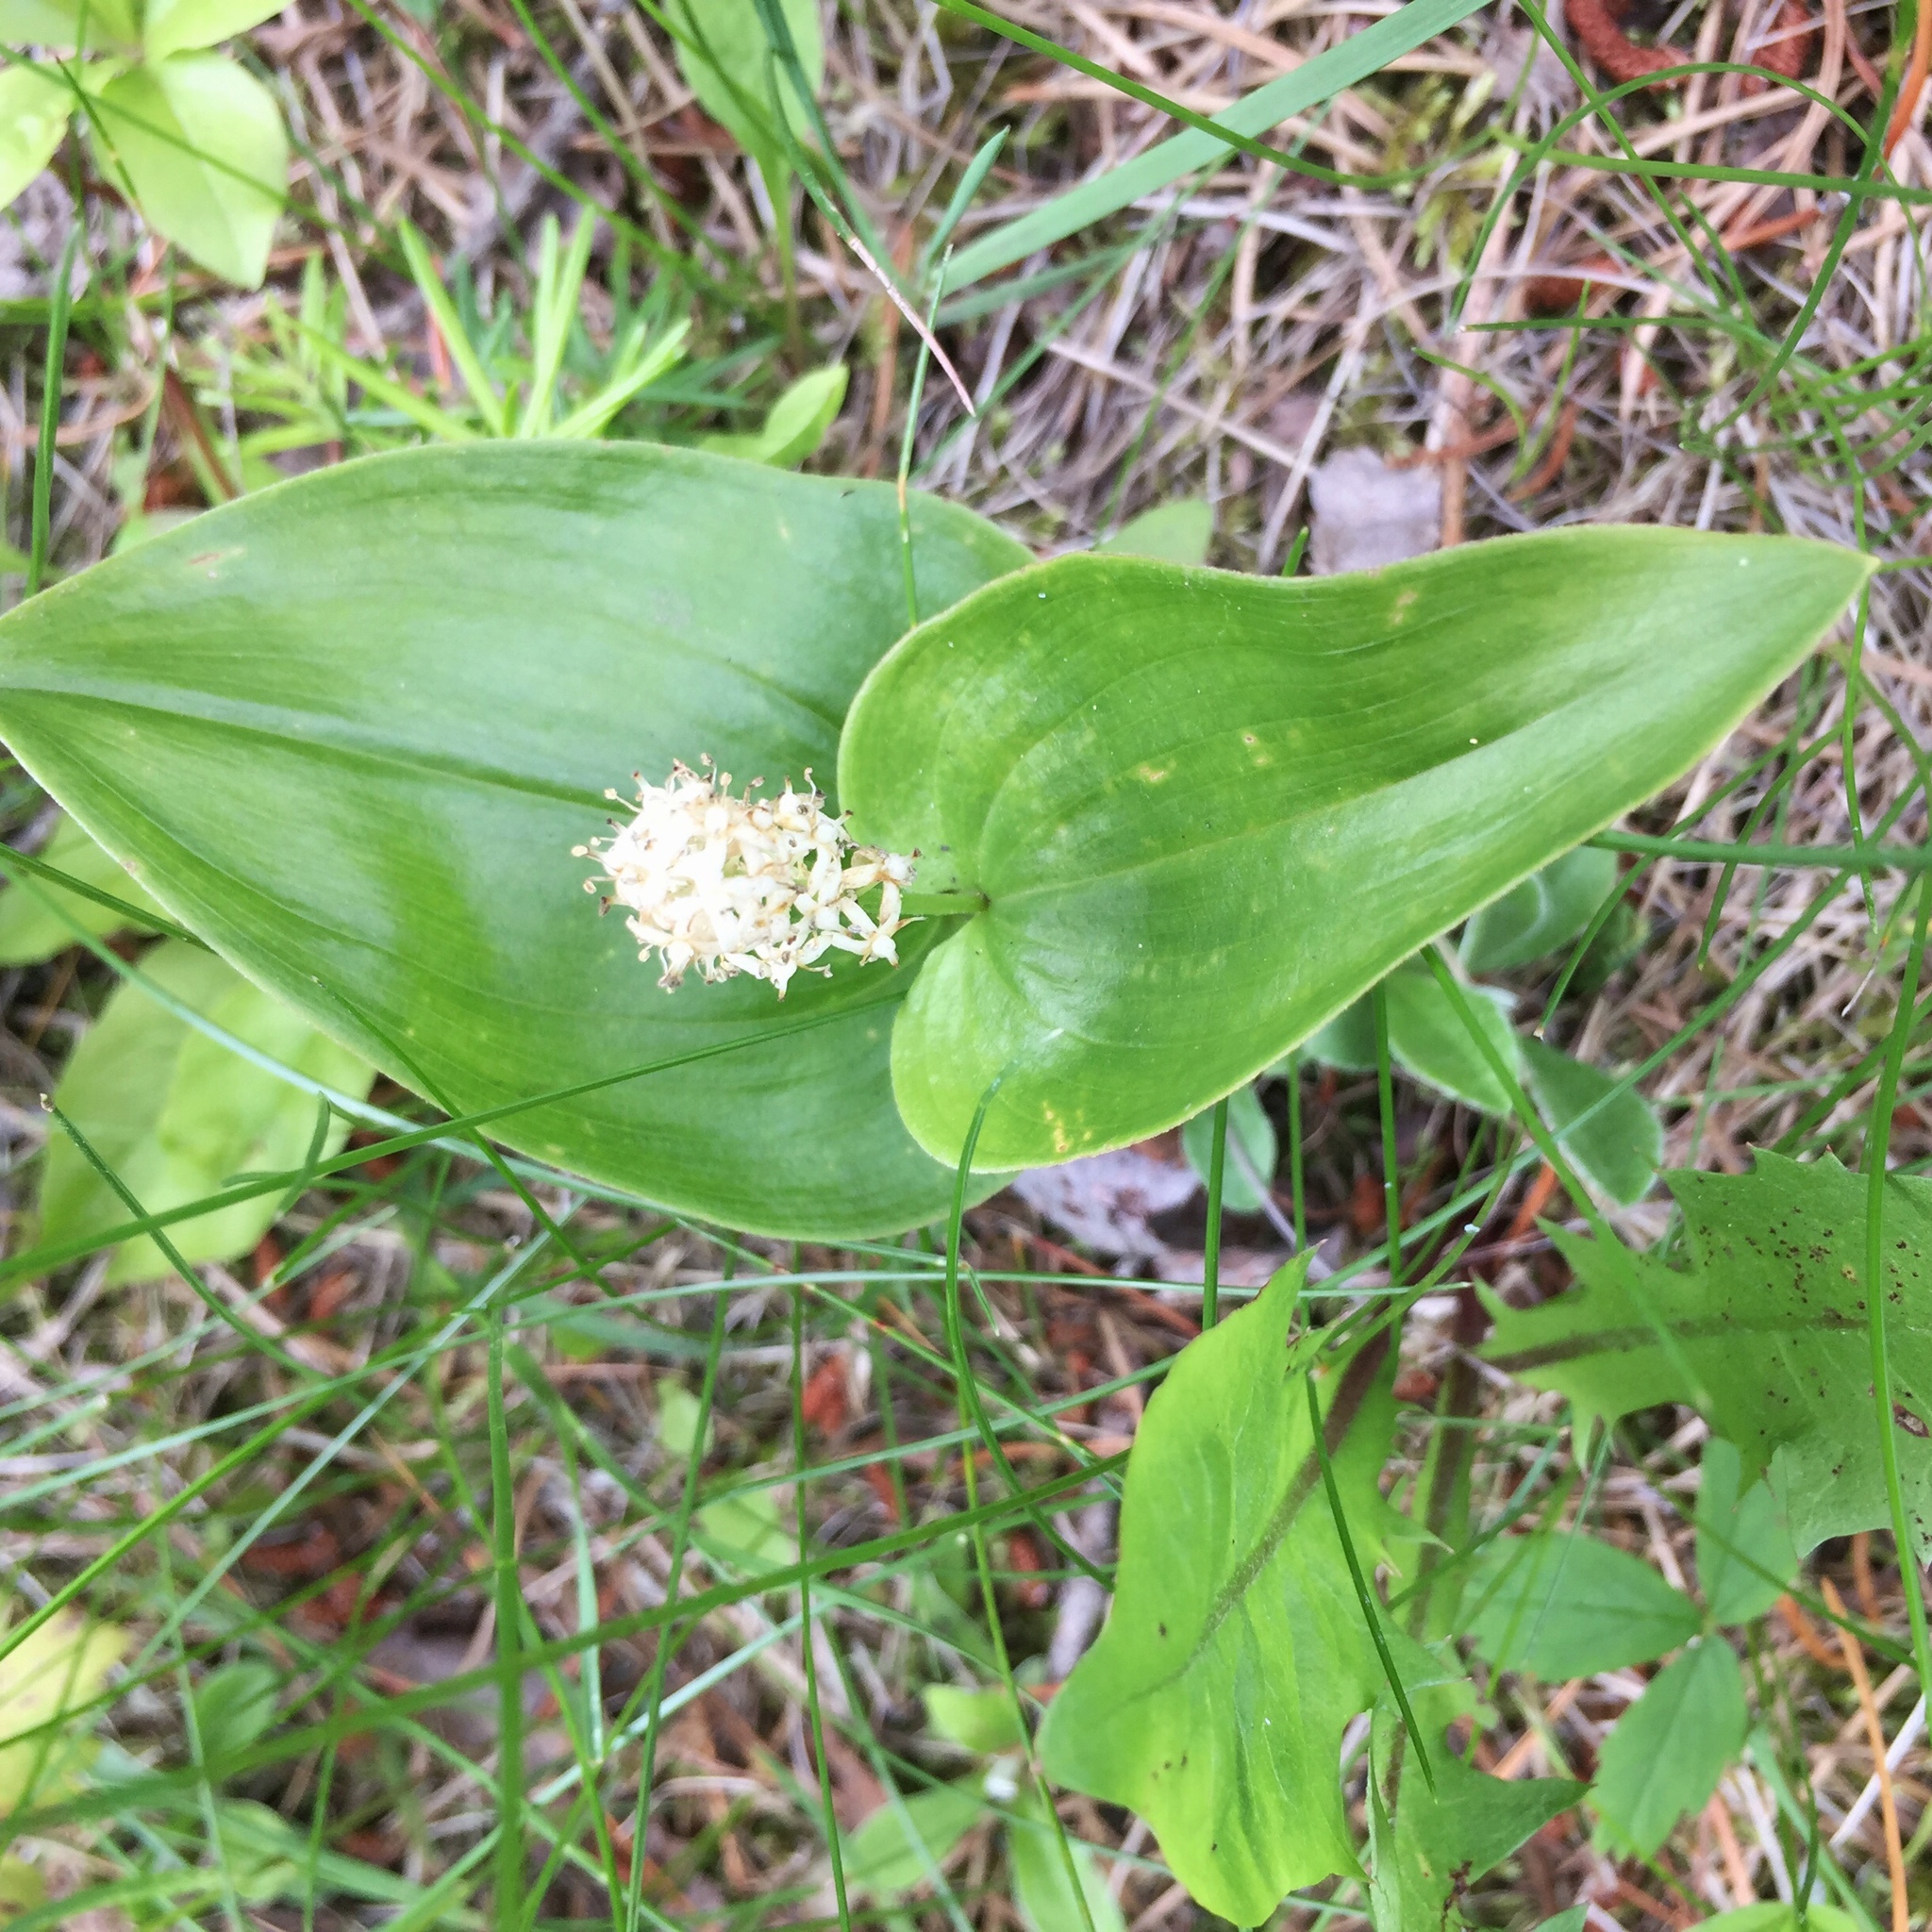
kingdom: Plantae
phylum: Tracheophyta
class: Liliopsida
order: Asparagales
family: Asparagaceae
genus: Maianthemum
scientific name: Maianthemum canadense
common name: False lily-of-the-valley
